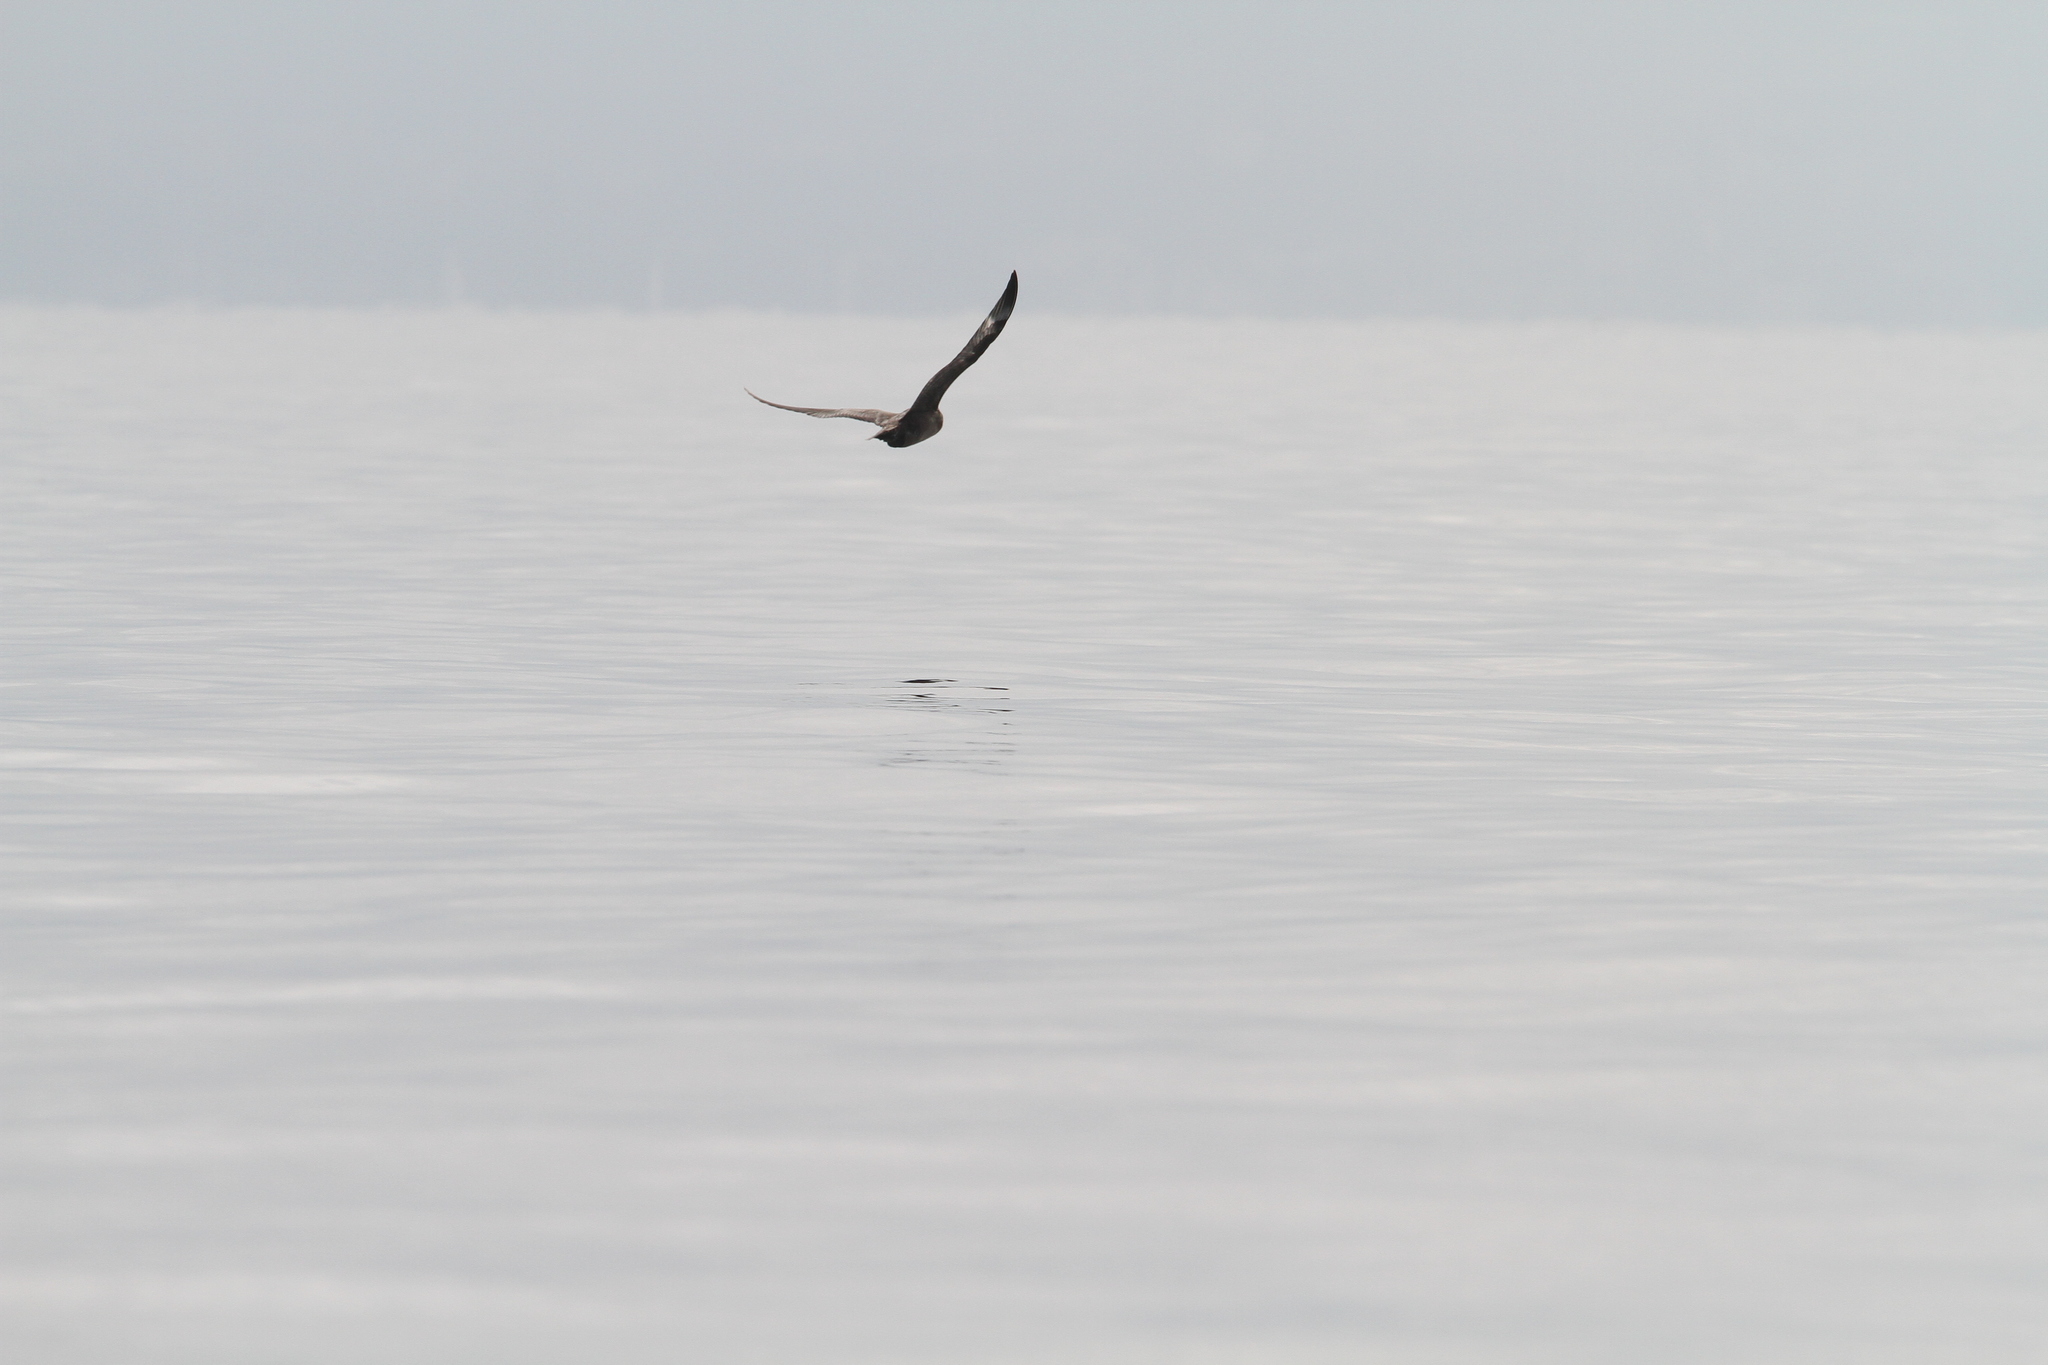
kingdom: Animalia
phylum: Chordata
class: Aves
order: Charadriiformes
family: Stercorariidae
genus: Stercorarius
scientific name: Stercorarius pomarinus
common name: Pomarine jaeger
